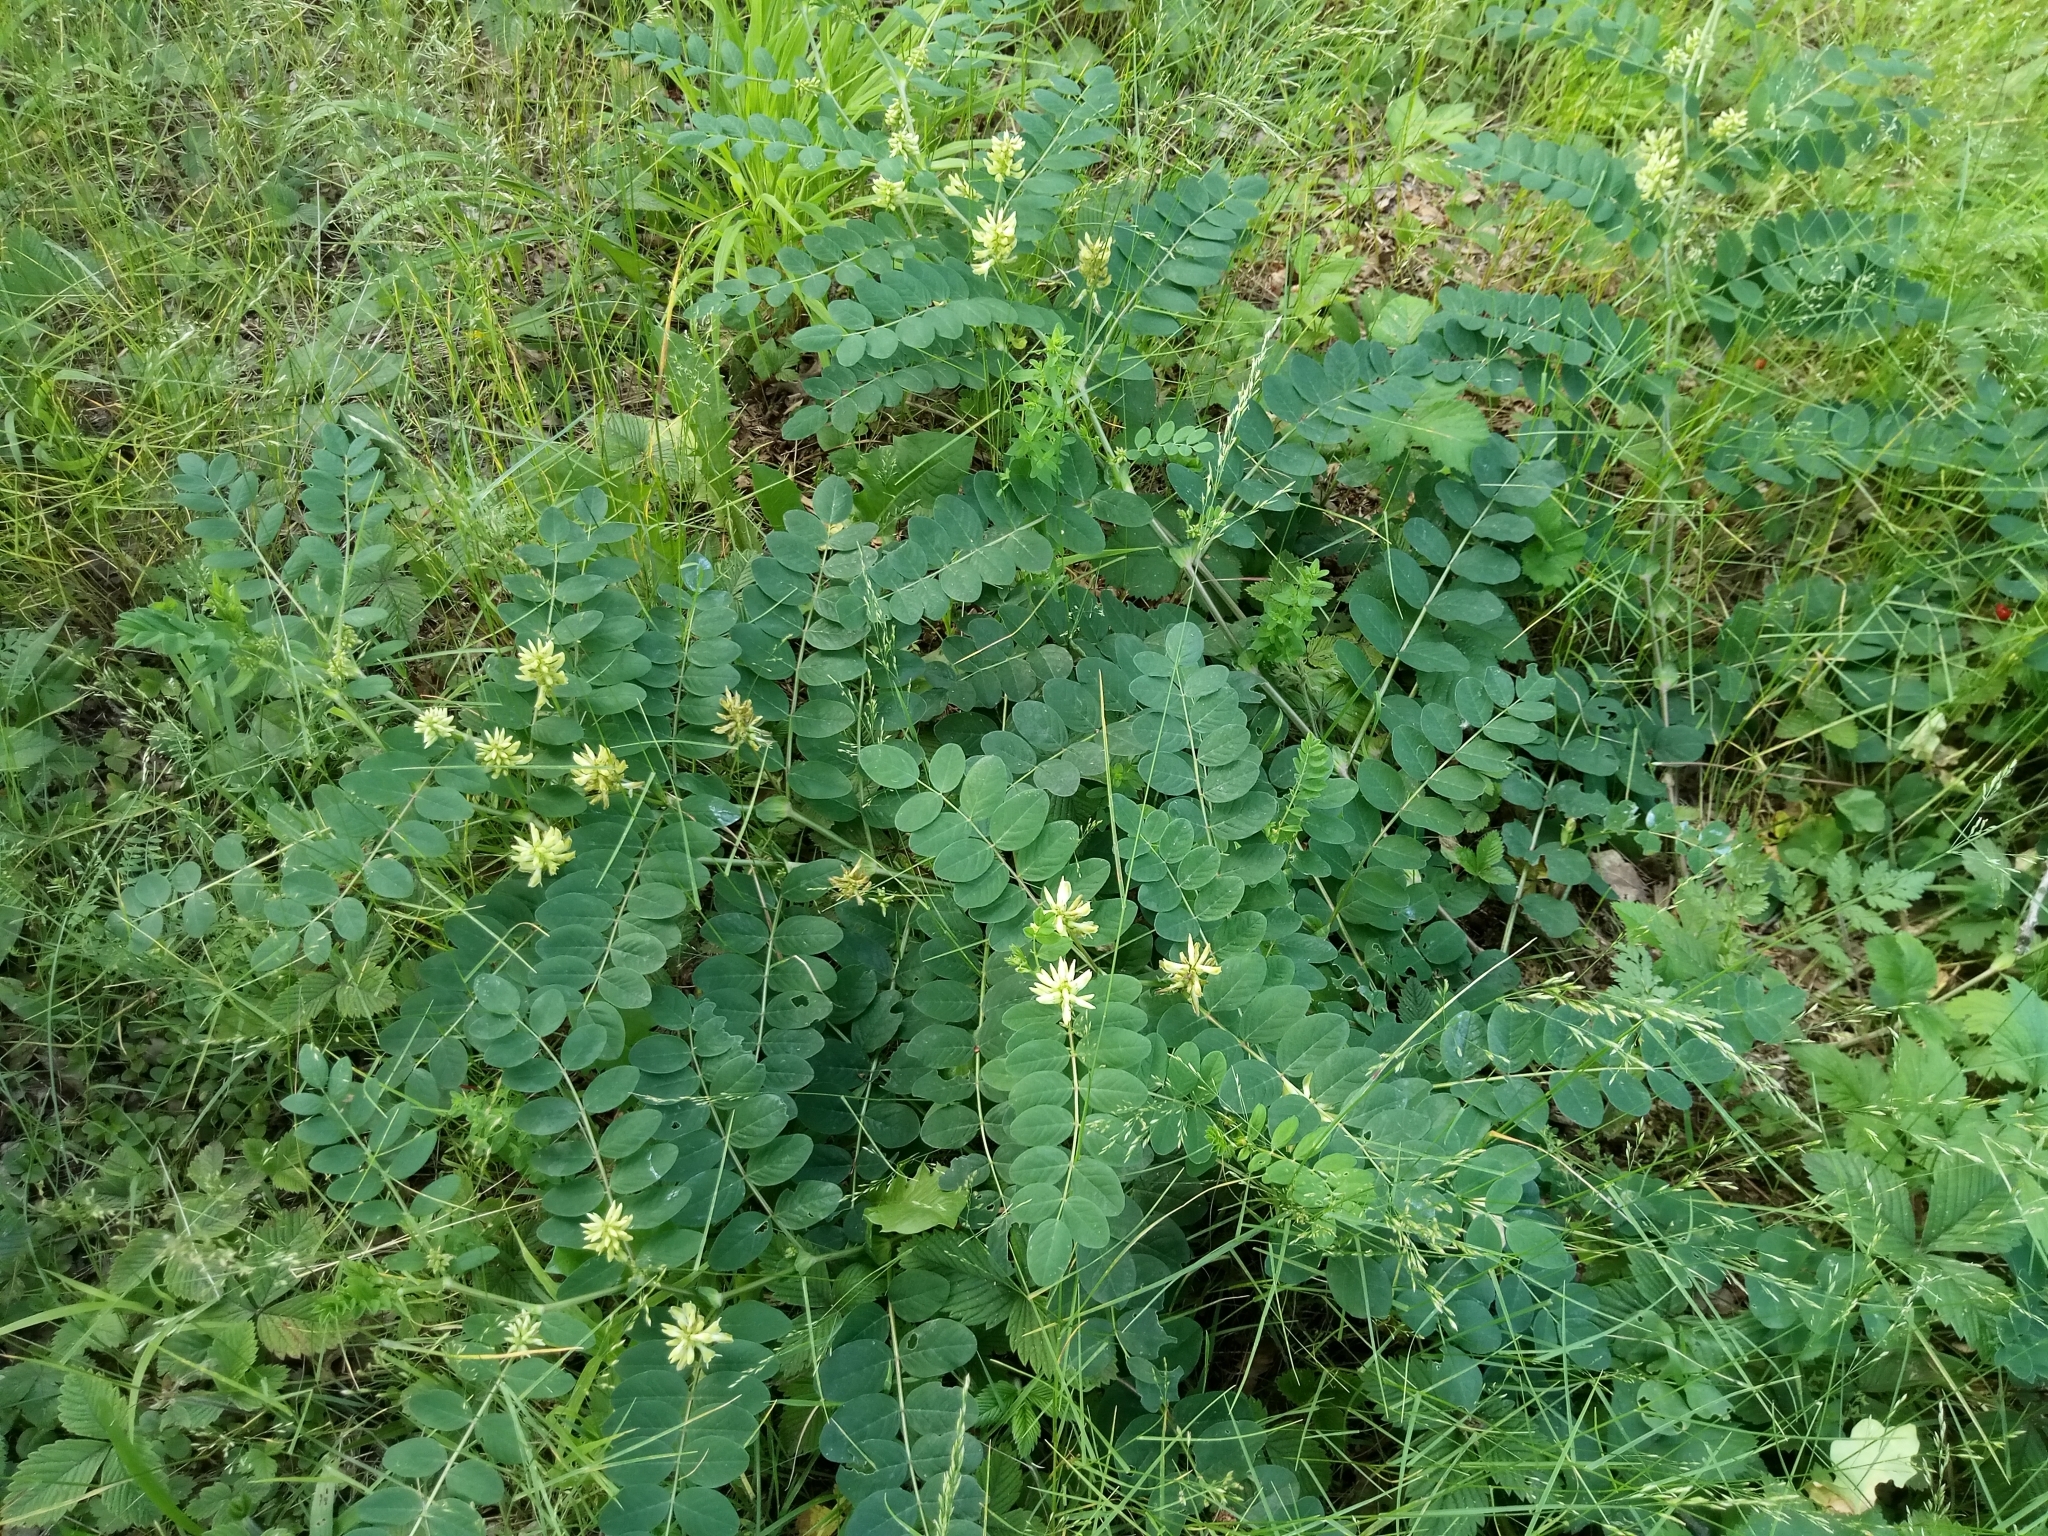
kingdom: Plantae
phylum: Tracheophyta
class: Magnoliopsida
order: Fabales
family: Fabaceae
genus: Astragalus
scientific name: Astragalus glycyphyllos
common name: Wild liquorice
